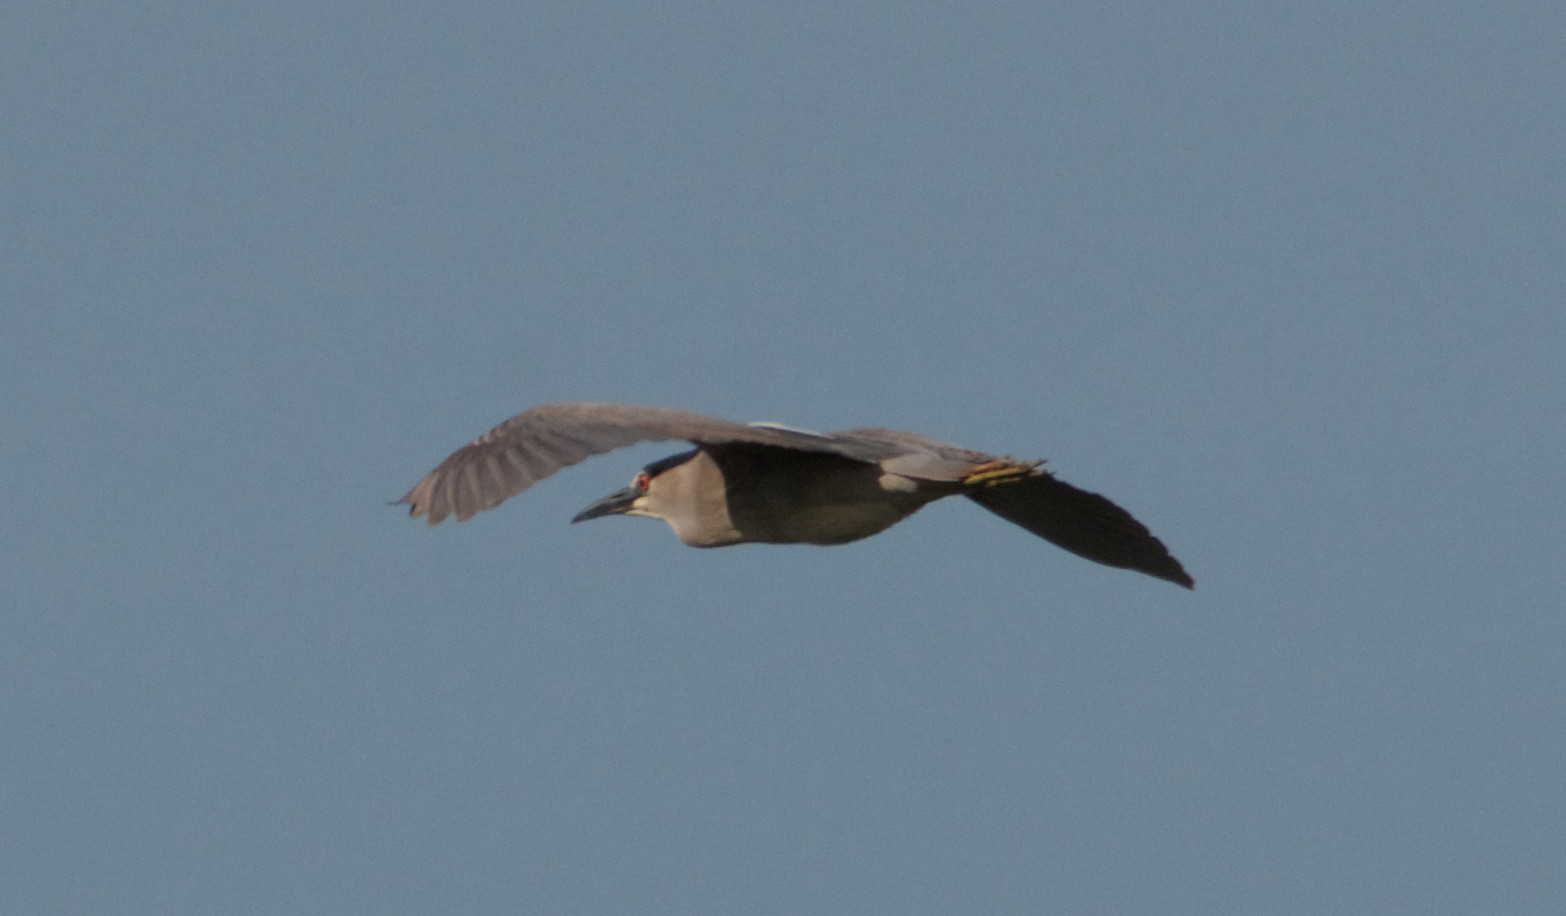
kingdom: Animalia
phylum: Chordata
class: Aves
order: Pelecaniformes
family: Ardeidae
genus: Nycticorax
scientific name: Nycticorax nycticorax
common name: Black-crowned night heron
